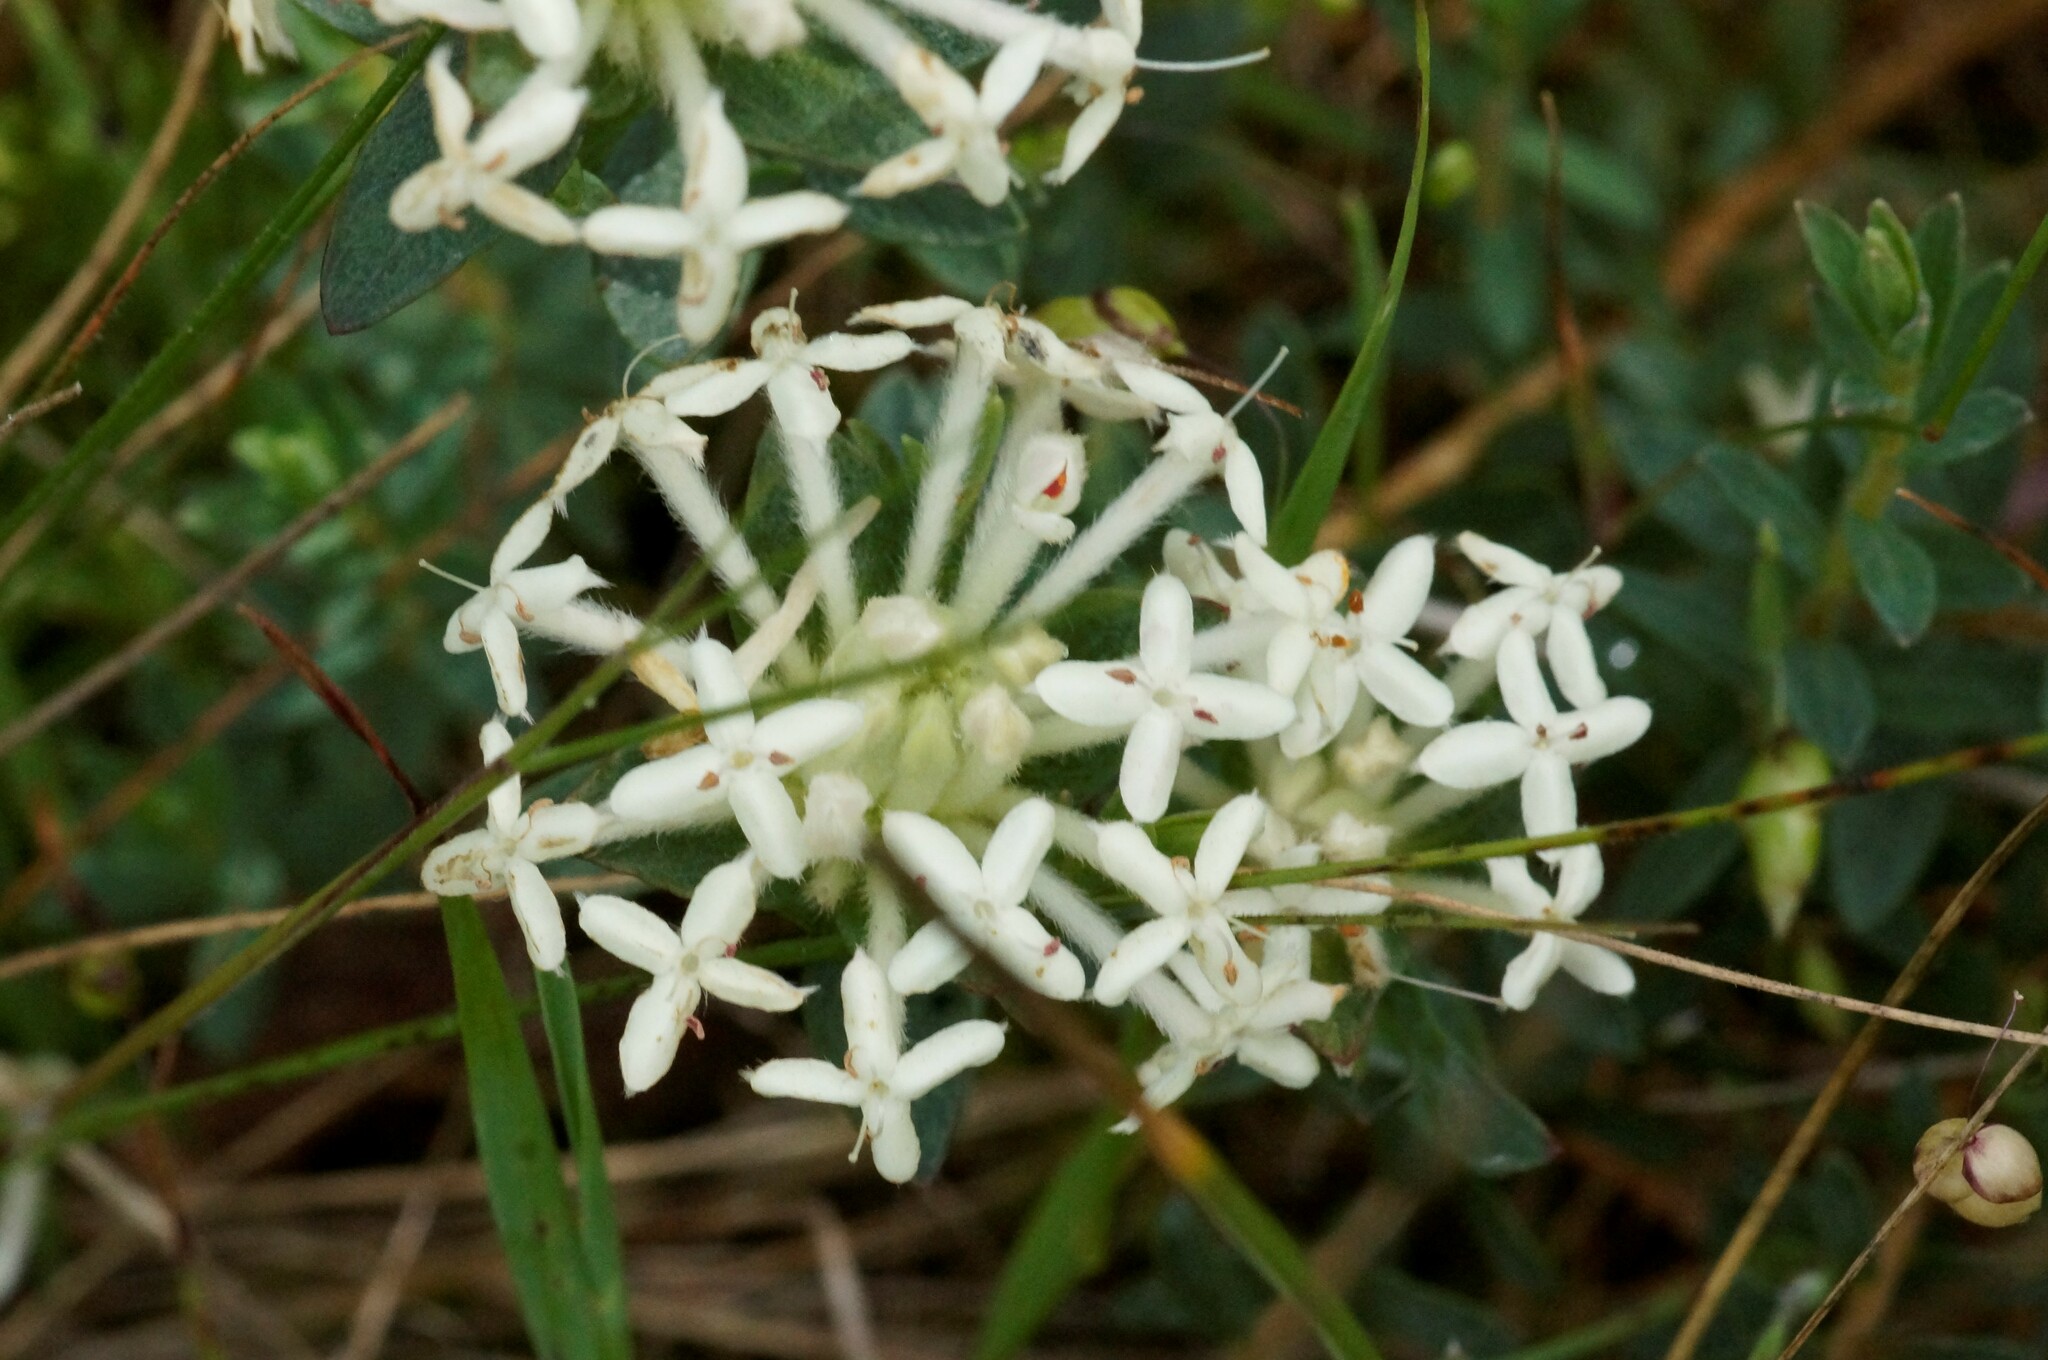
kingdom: Plantae
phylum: Tracheophyta
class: Magnoliopsida
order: Malvales
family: Thymelaeaceae
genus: Pimelea
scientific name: Pimelea linifolia
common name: Queen-of-the-bush
